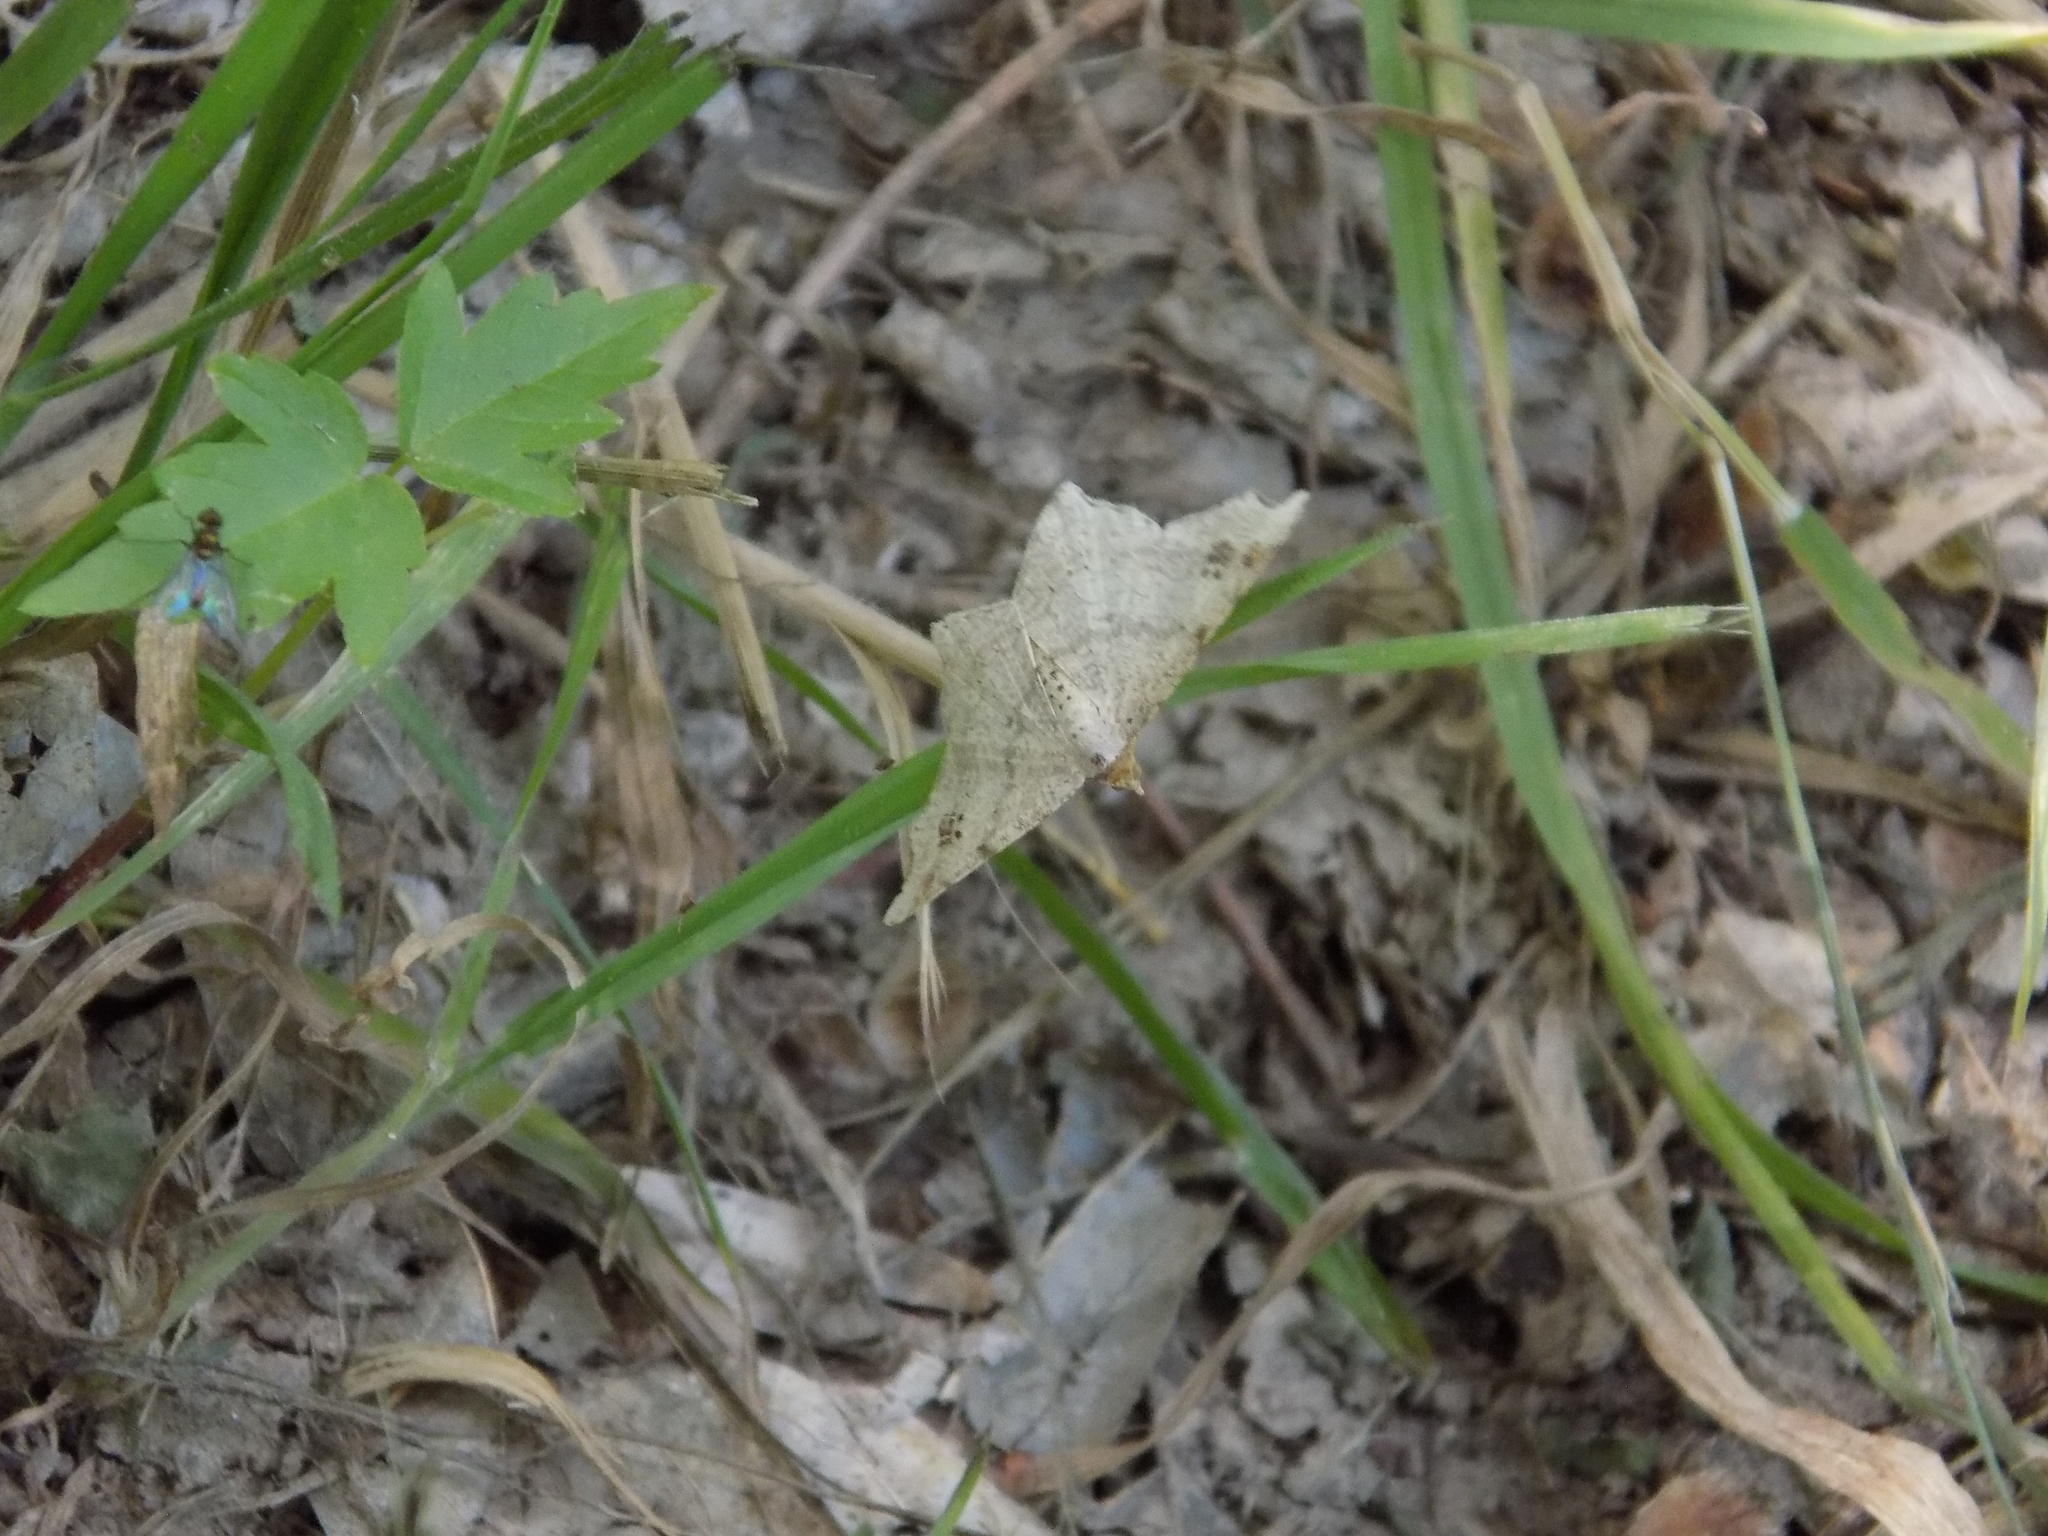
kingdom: Animalia
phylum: Arthropoda
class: Insecta
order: Lepidoptera
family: Geometridae
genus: Macaria
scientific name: Macaria aemulataria
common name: Common angle
